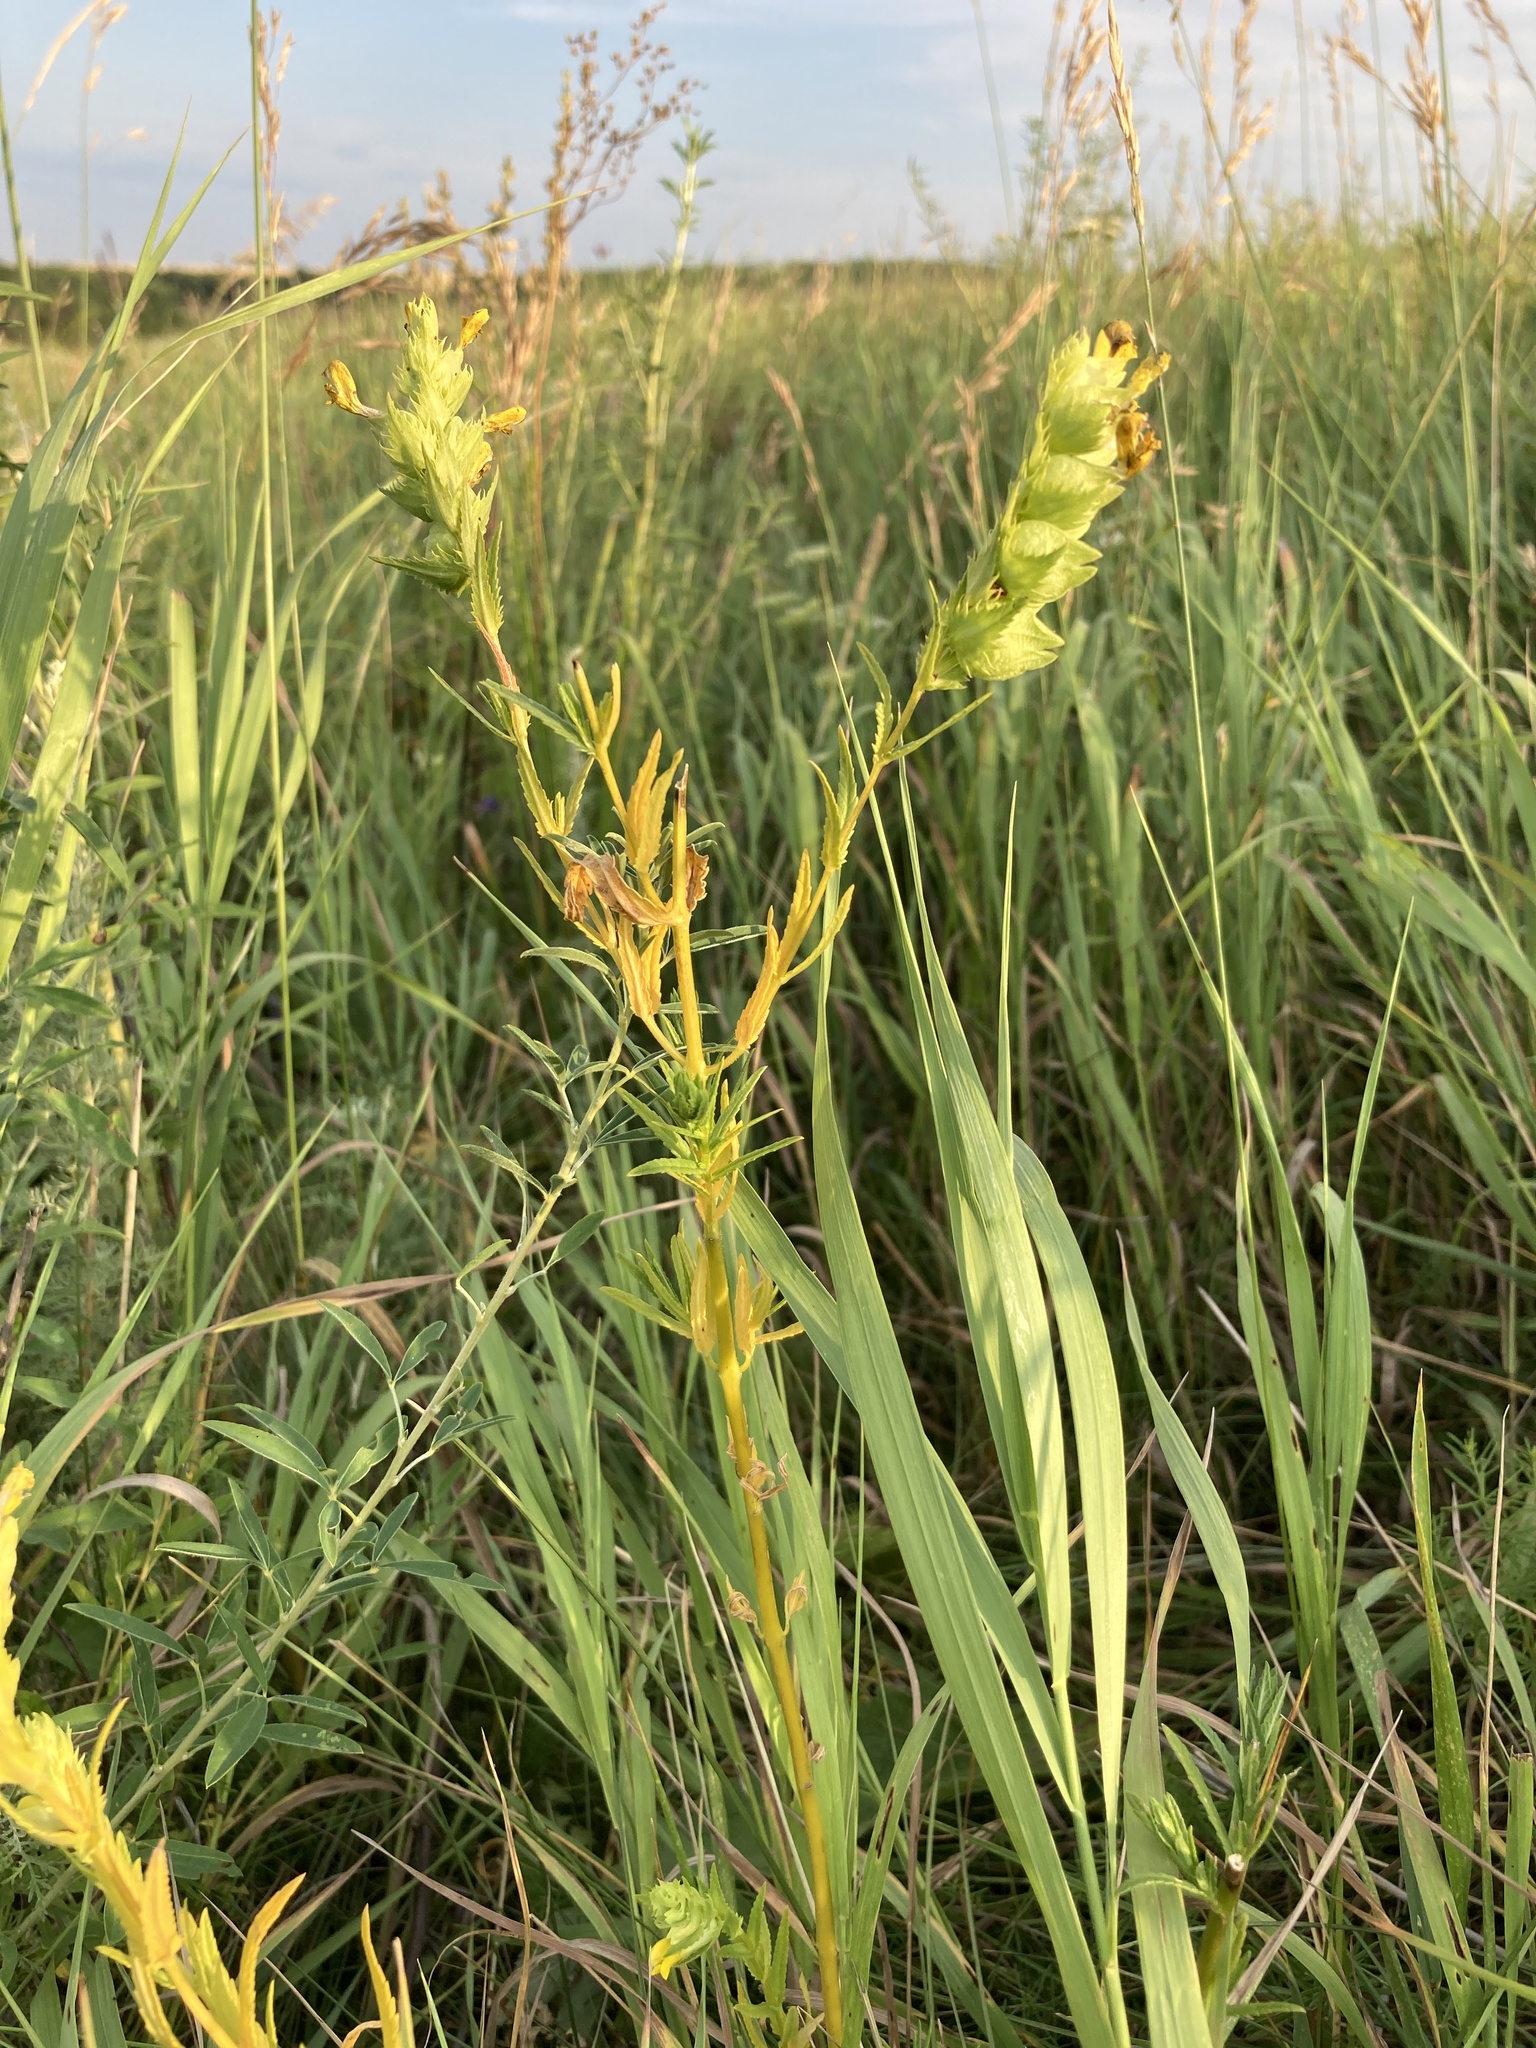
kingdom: Plantae
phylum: Tracheophyta
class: Magnoliopsida
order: Lamiales
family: Orobanchaceae
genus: Rhinanthus
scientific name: Rhinanthus serotinus
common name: Late-flowering yellow rattle
